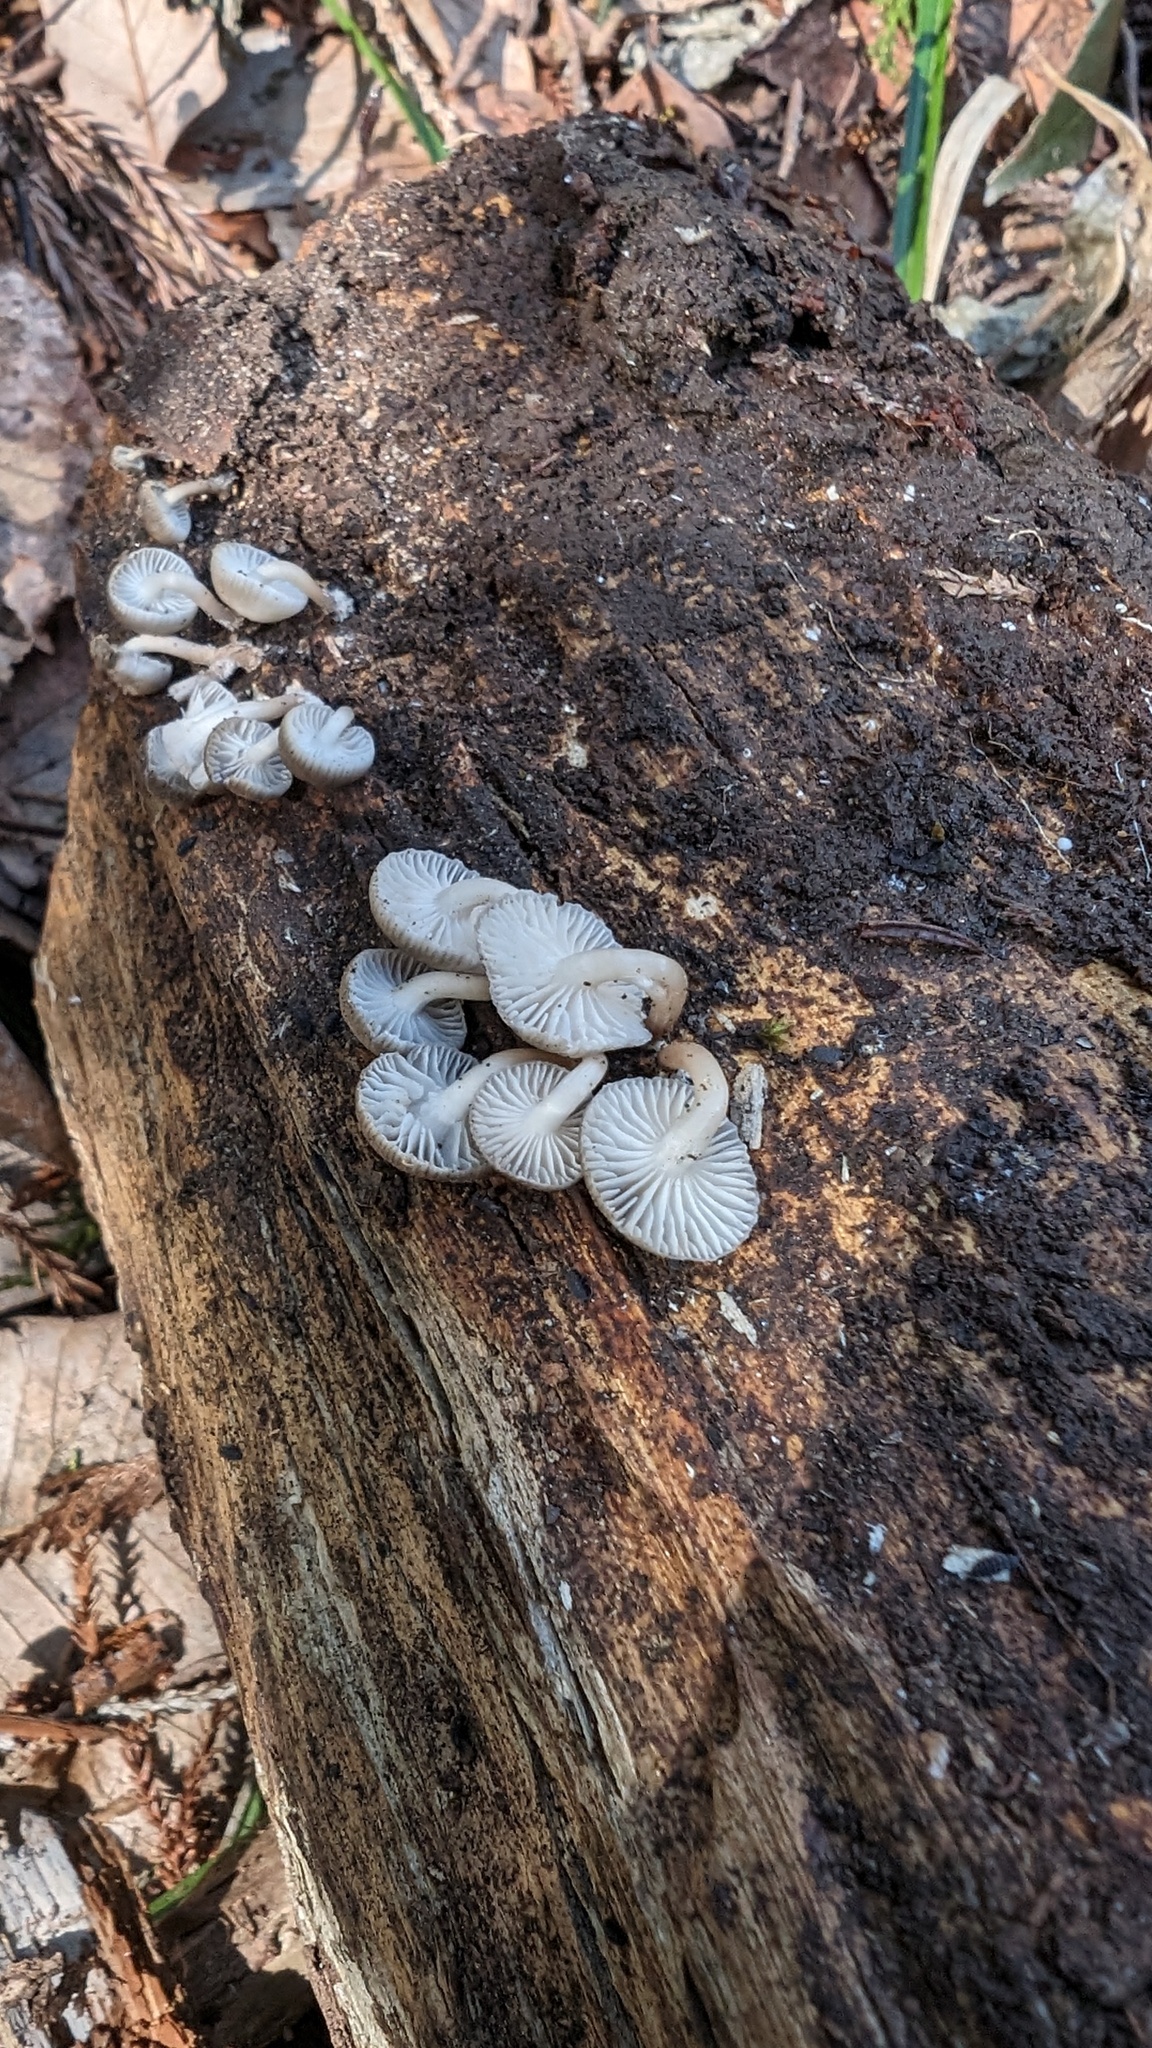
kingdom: Fungi
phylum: Basidiomycota
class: Agaricomycetes
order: Agaricales
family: Mycenaceae
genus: Mycena
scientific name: Mycena laevigata
